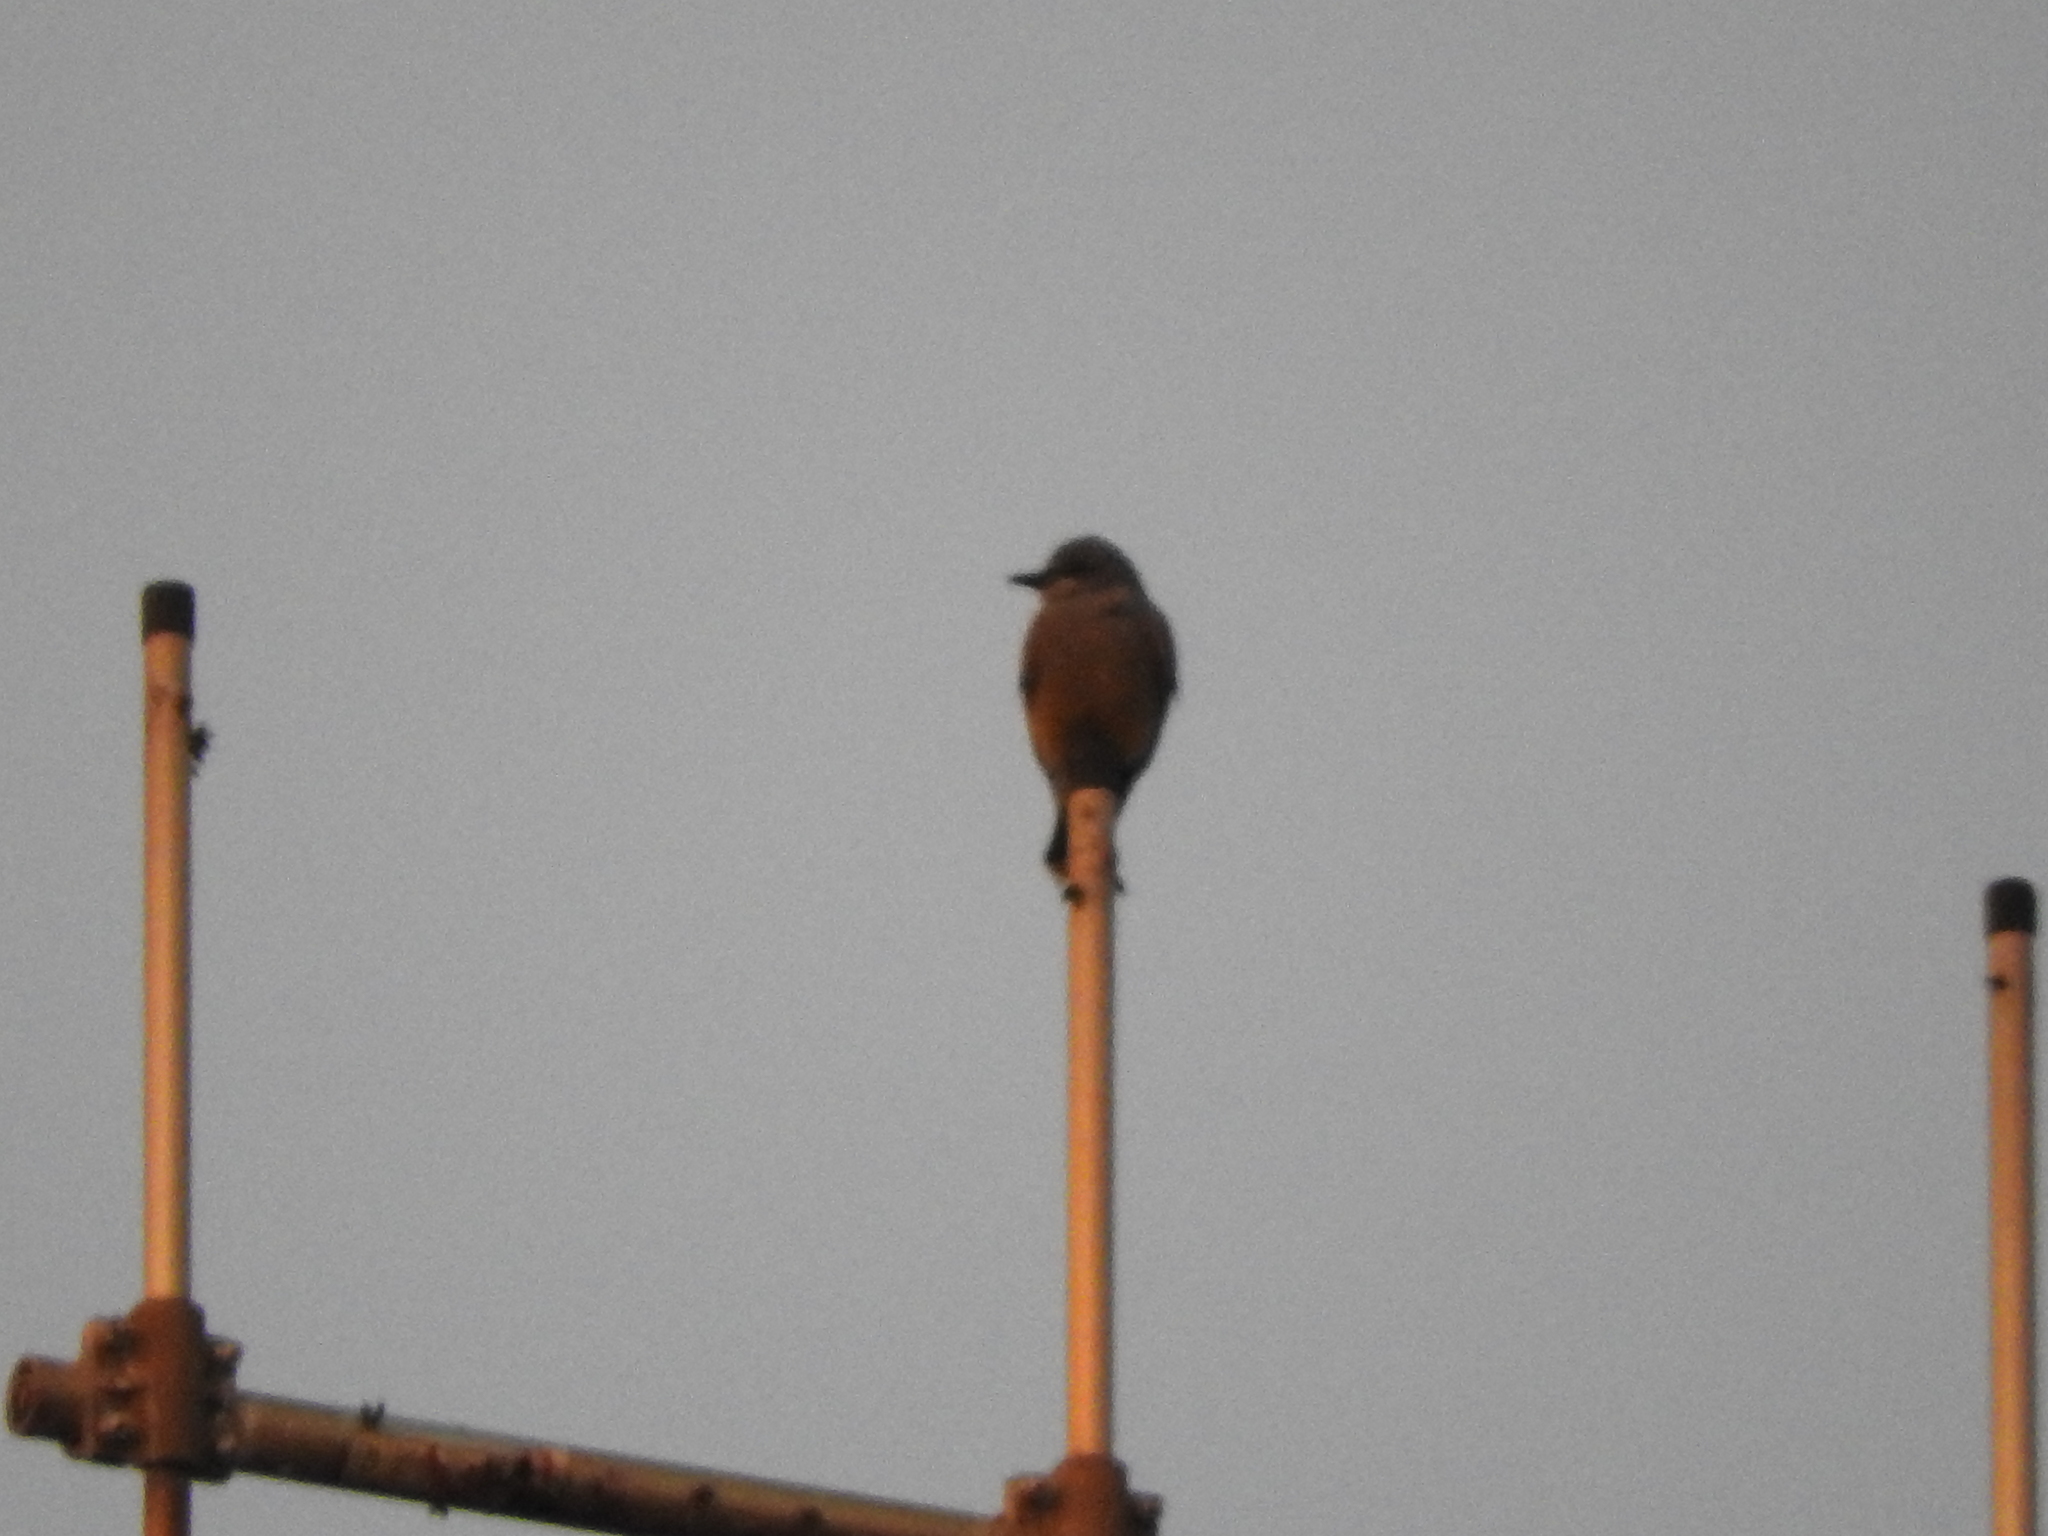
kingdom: Animalia
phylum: Chordata
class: Aves
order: Passeriformes
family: Tyrannidae
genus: Tyrannus
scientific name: Tyrannus vociferans
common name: Cassin's kingbird
